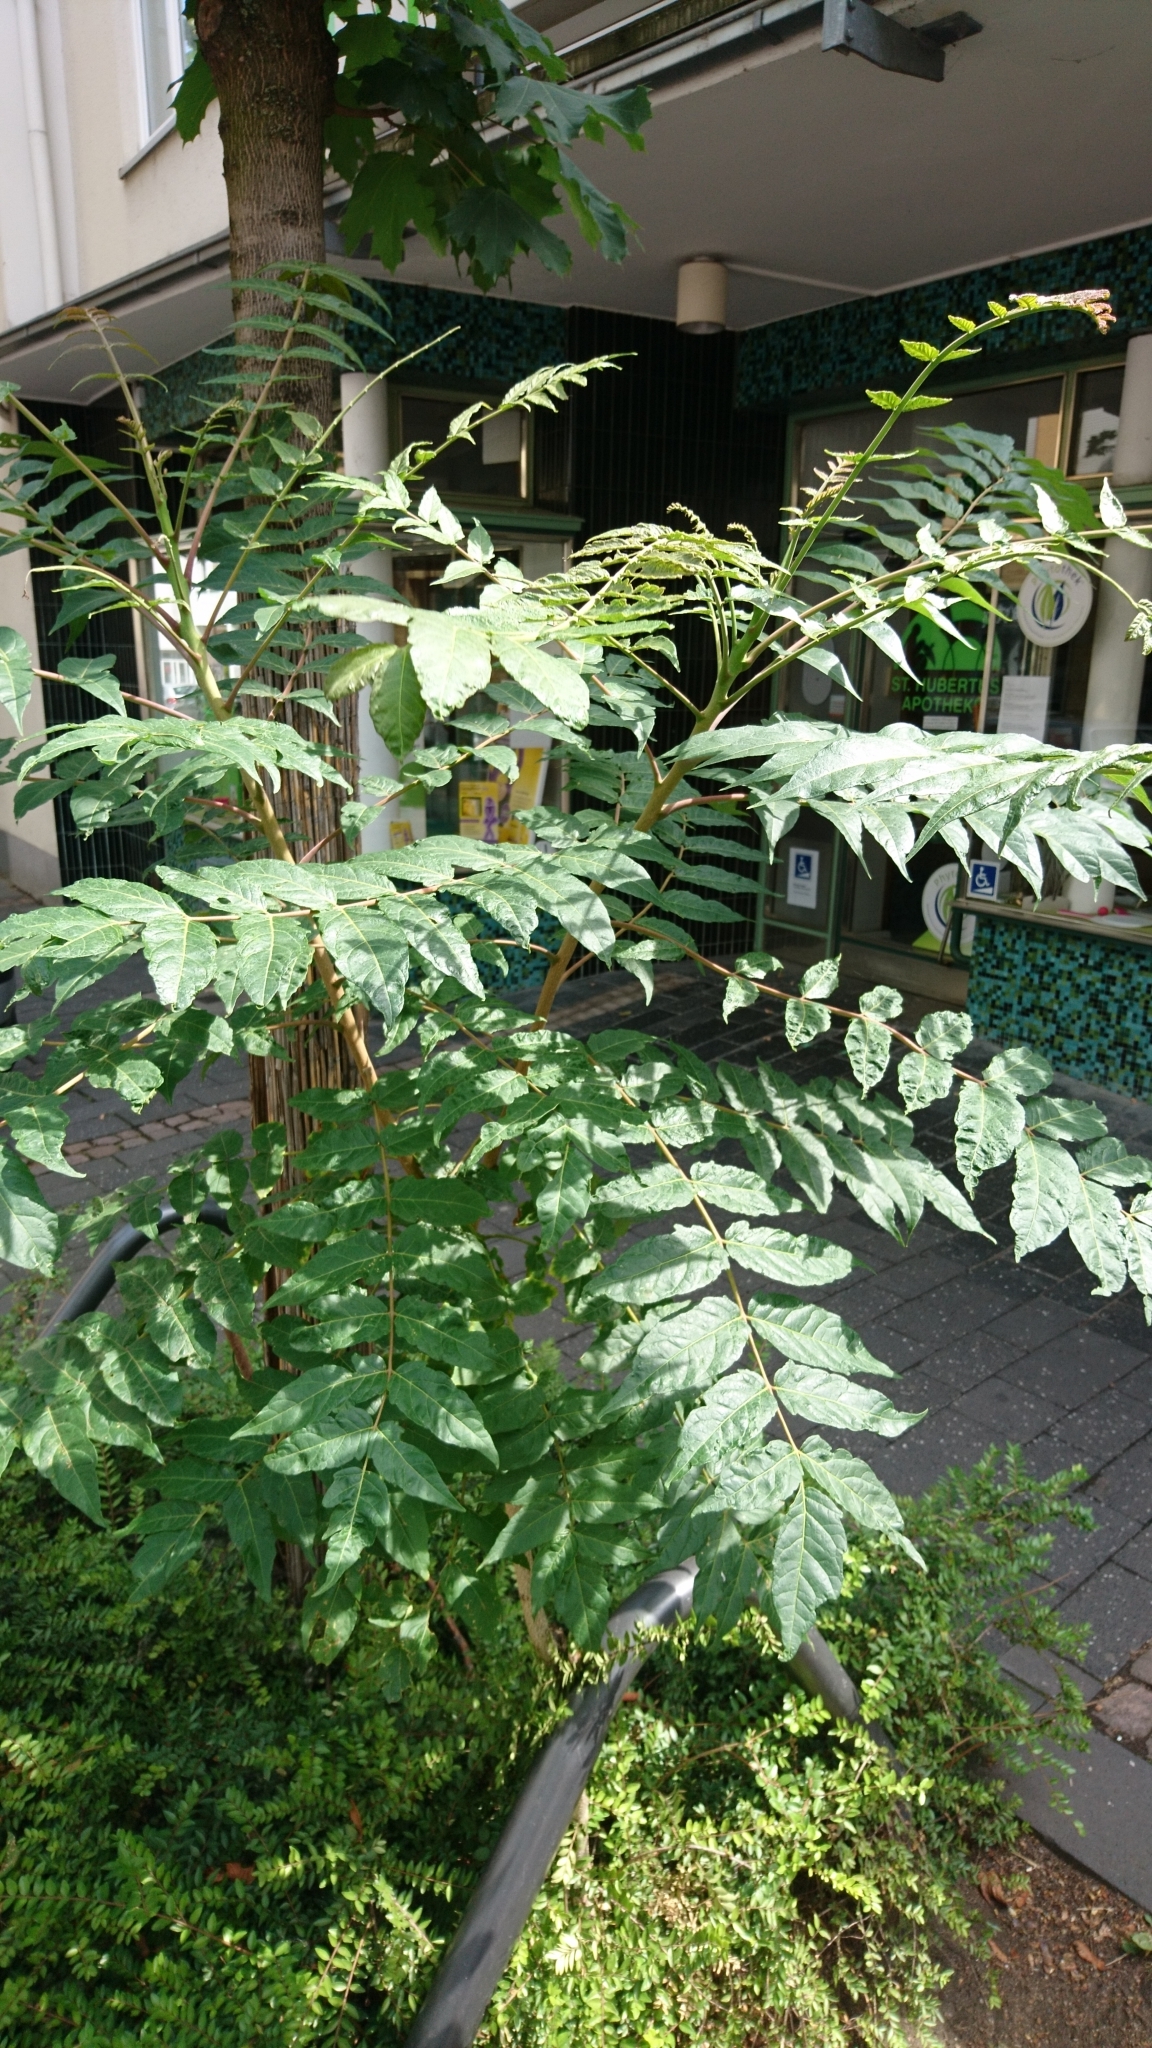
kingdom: Plantae
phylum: Tracheophyta
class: Magnoliopsida
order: Sapindales
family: Simaroubaceae
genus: Ailanthus
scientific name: Ailanthus altissima
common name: Tree-of-heaven
